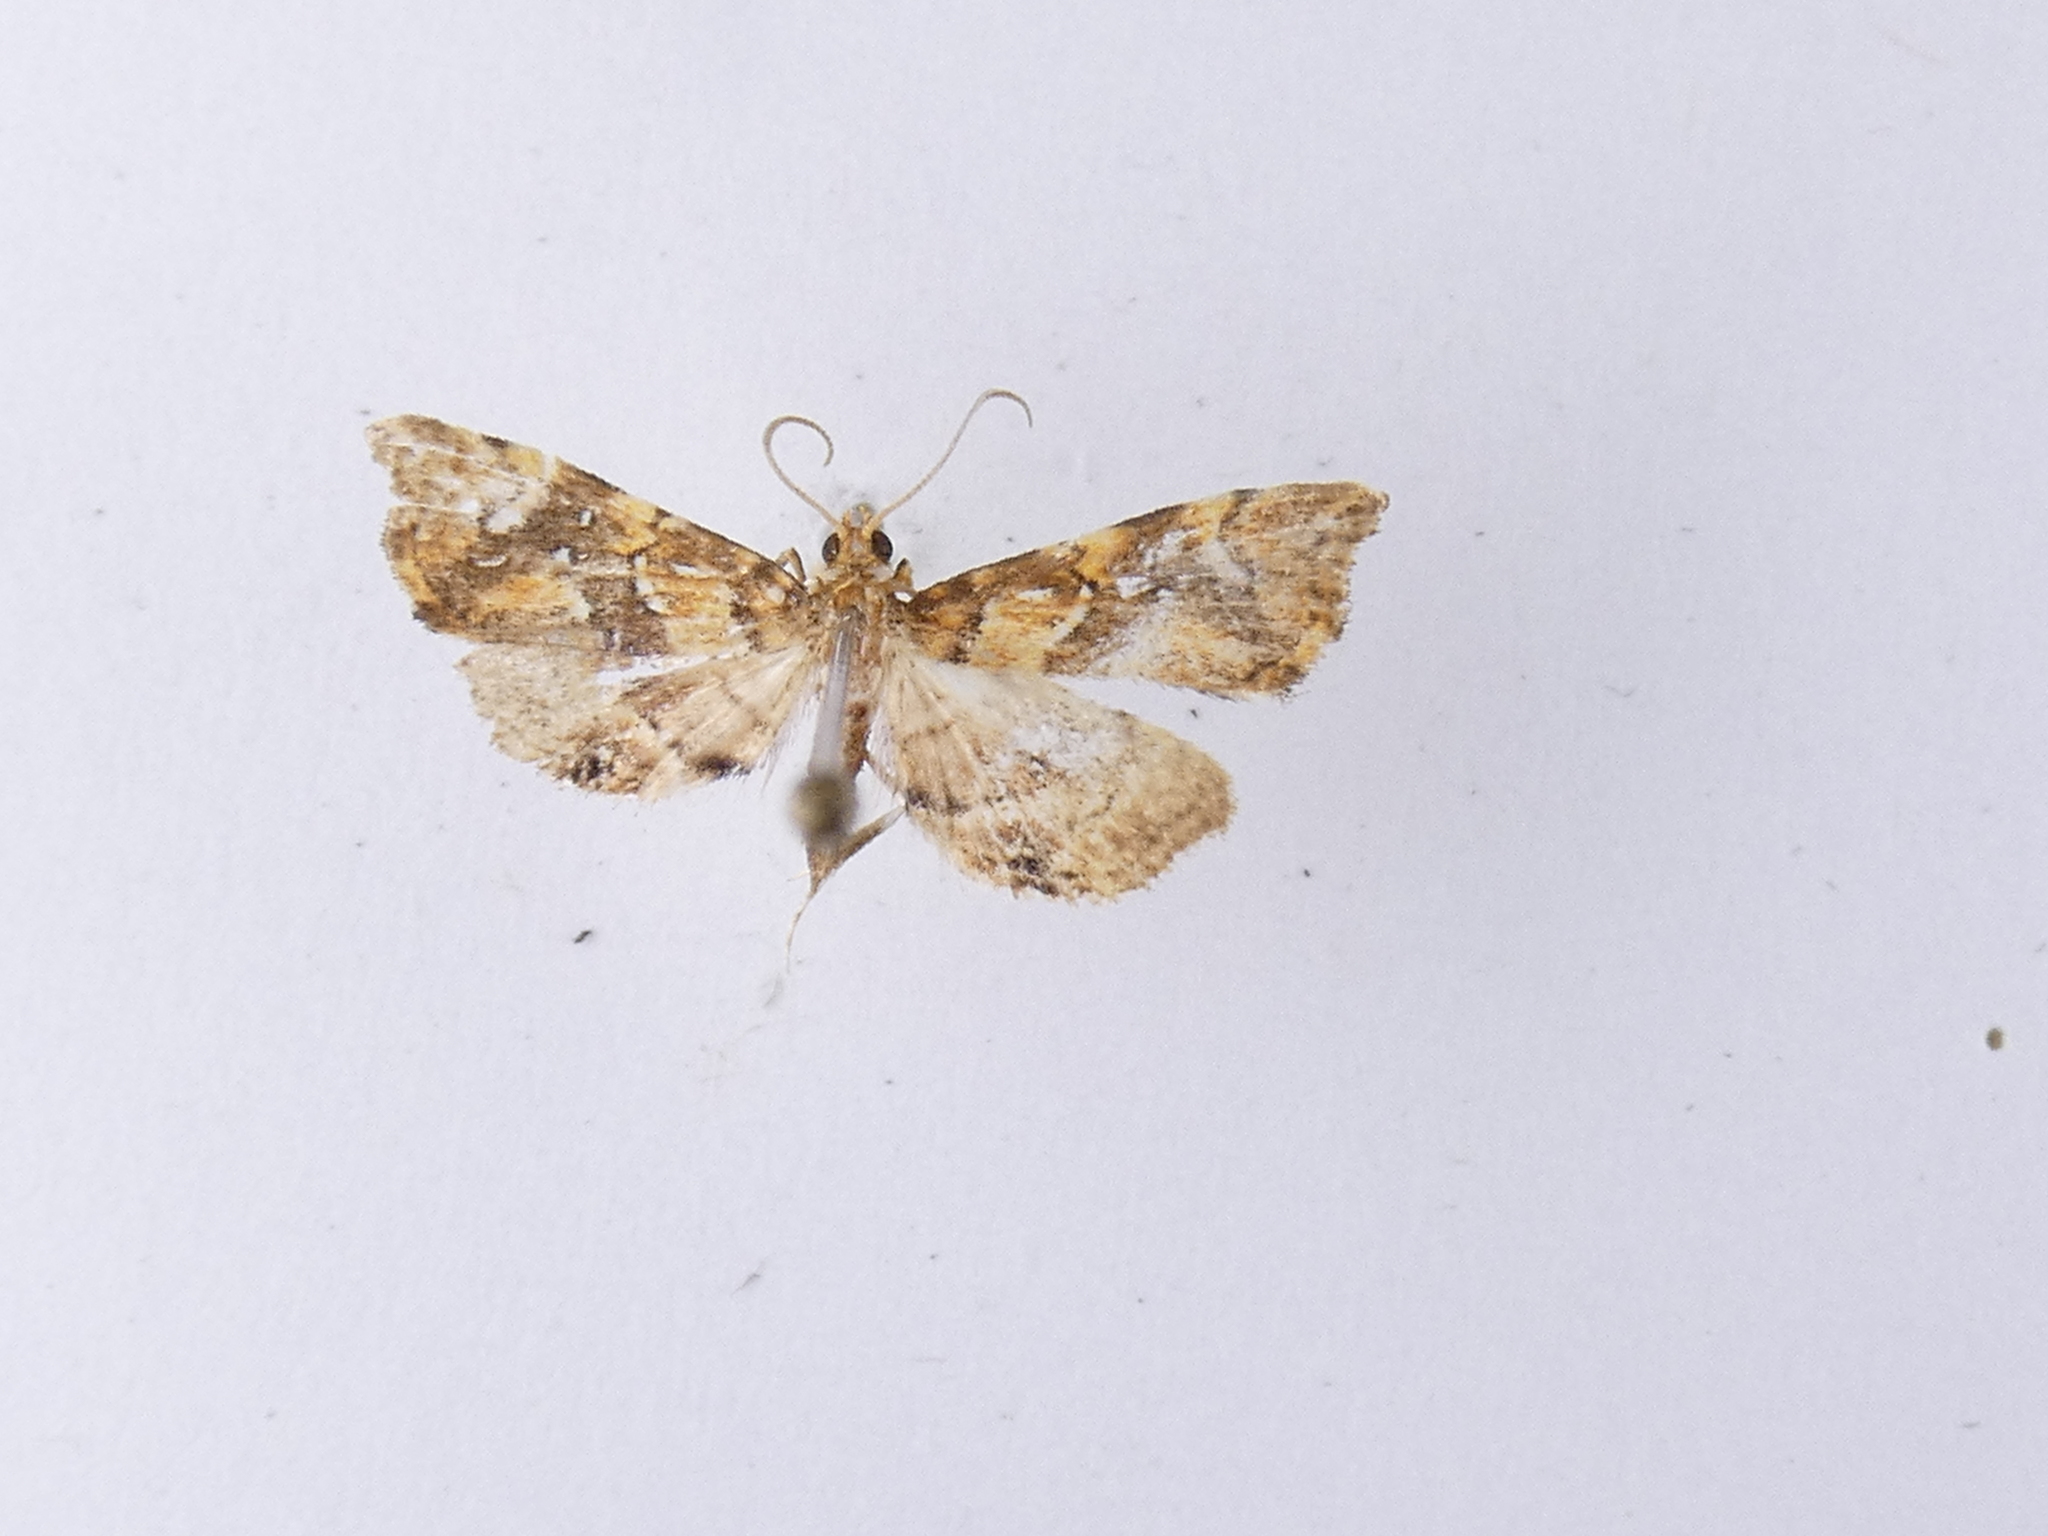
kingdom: Animalia
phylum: Arthropoda
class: Insecta
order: Lepidoptera
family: Pyralidae
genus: Musotima
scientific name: Musotima nitidalis
